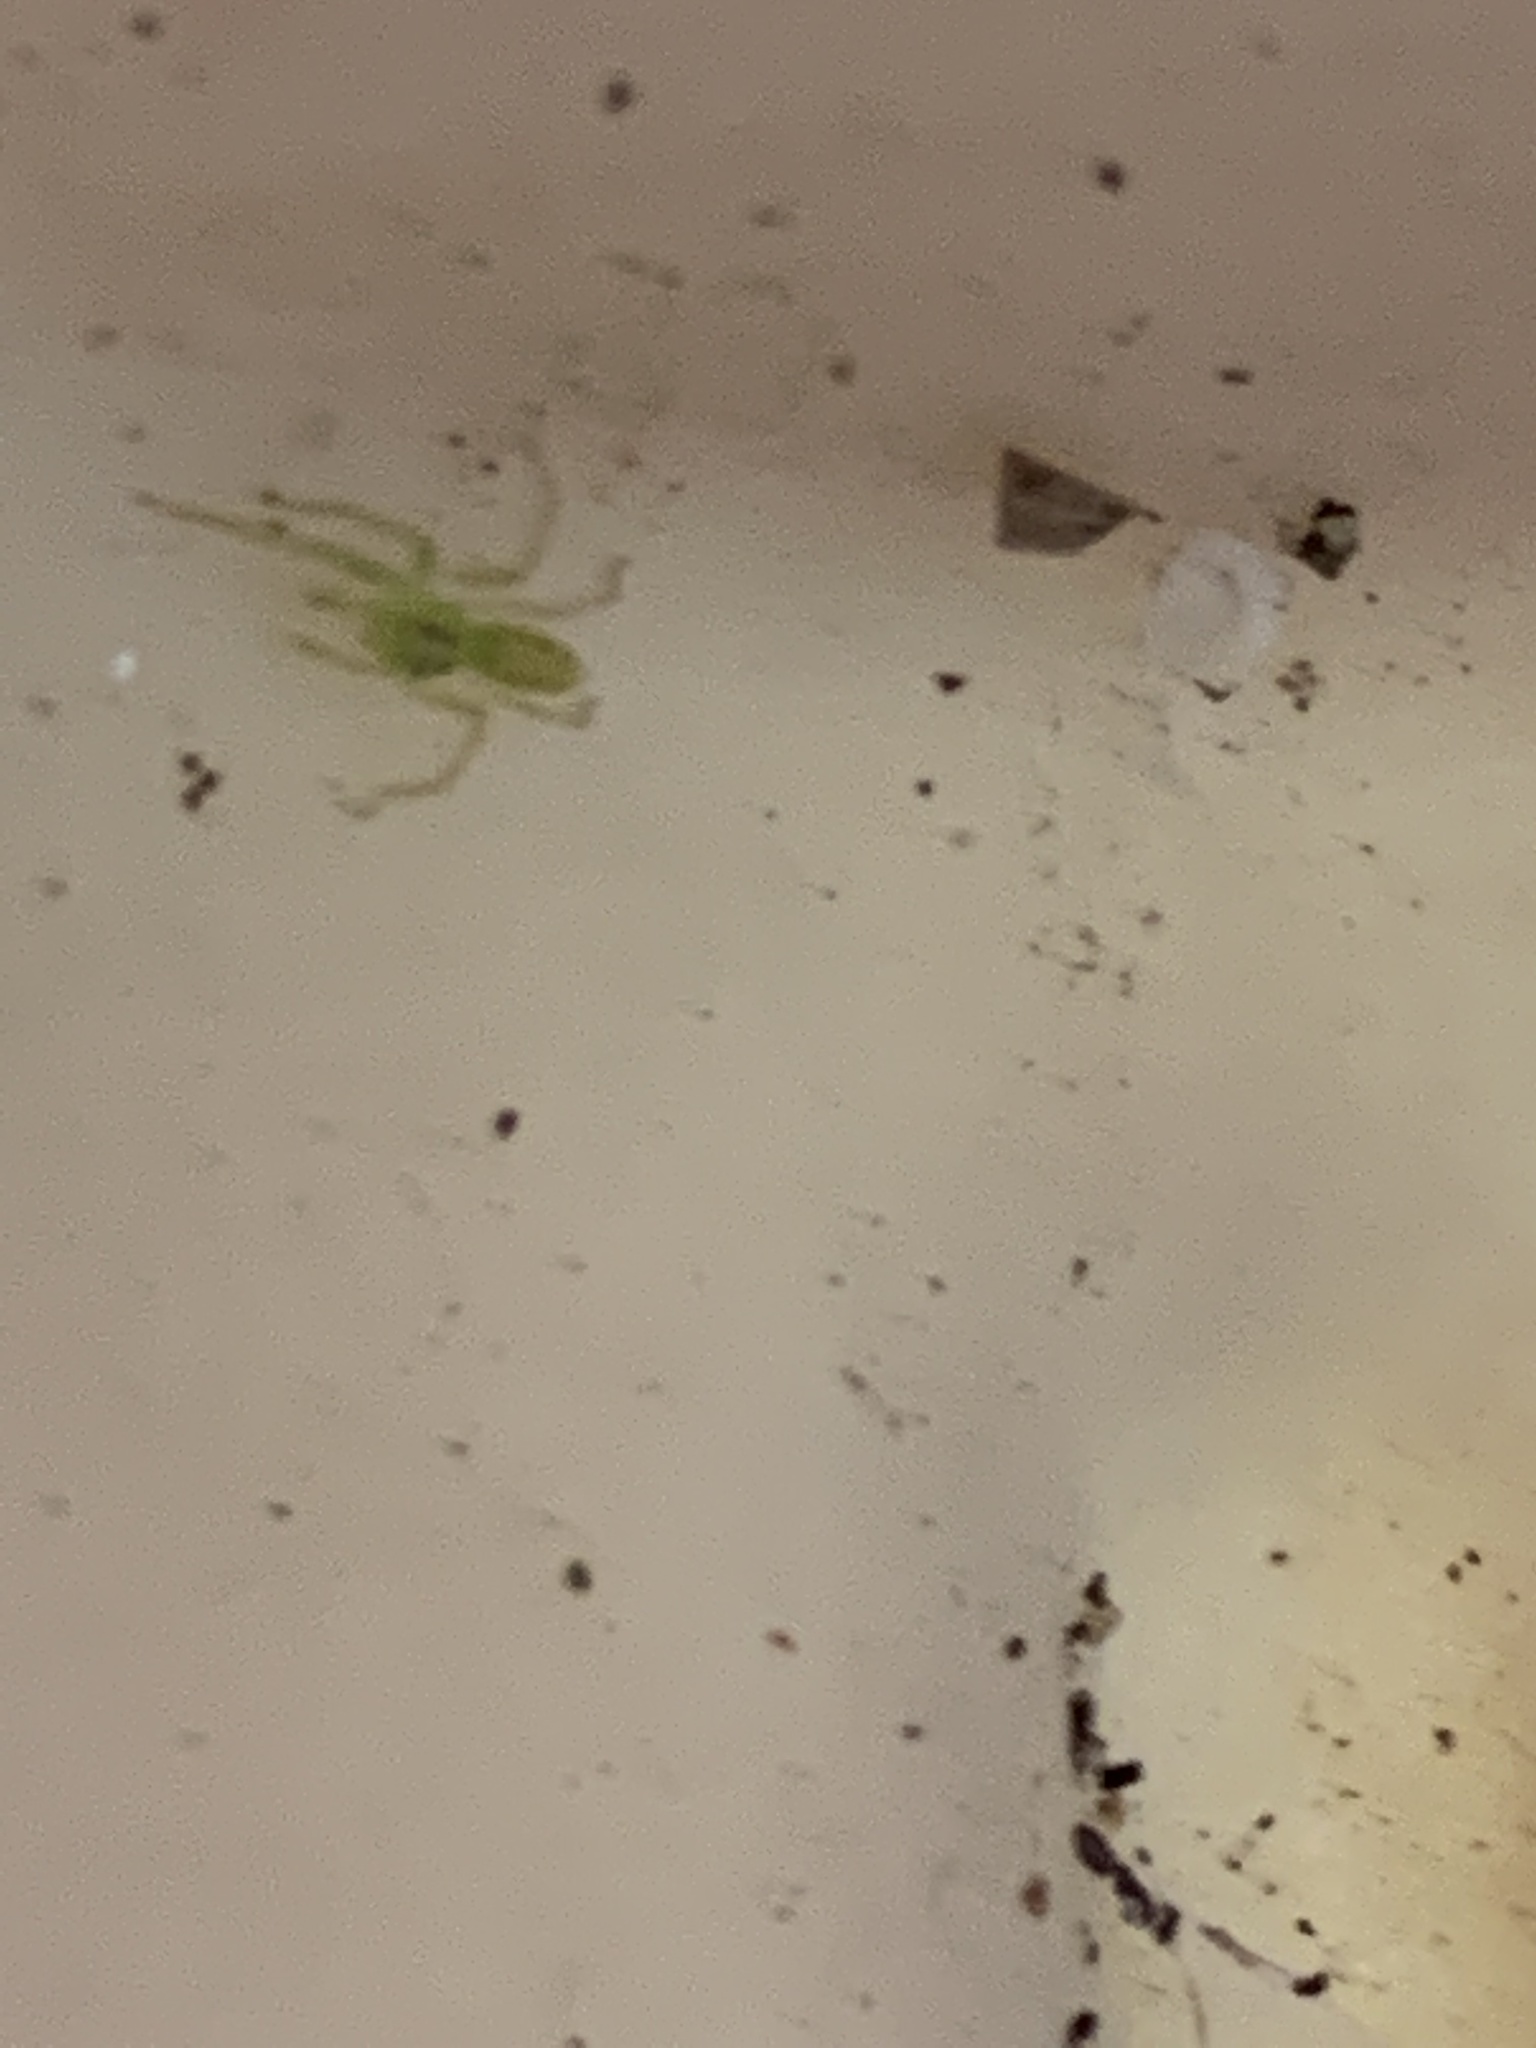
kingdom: Animalia
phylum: Arthropoda
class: Arachnida
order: Araneae
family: Salticidae
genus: Lyssomanes
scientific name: Lyssomanes viridis
